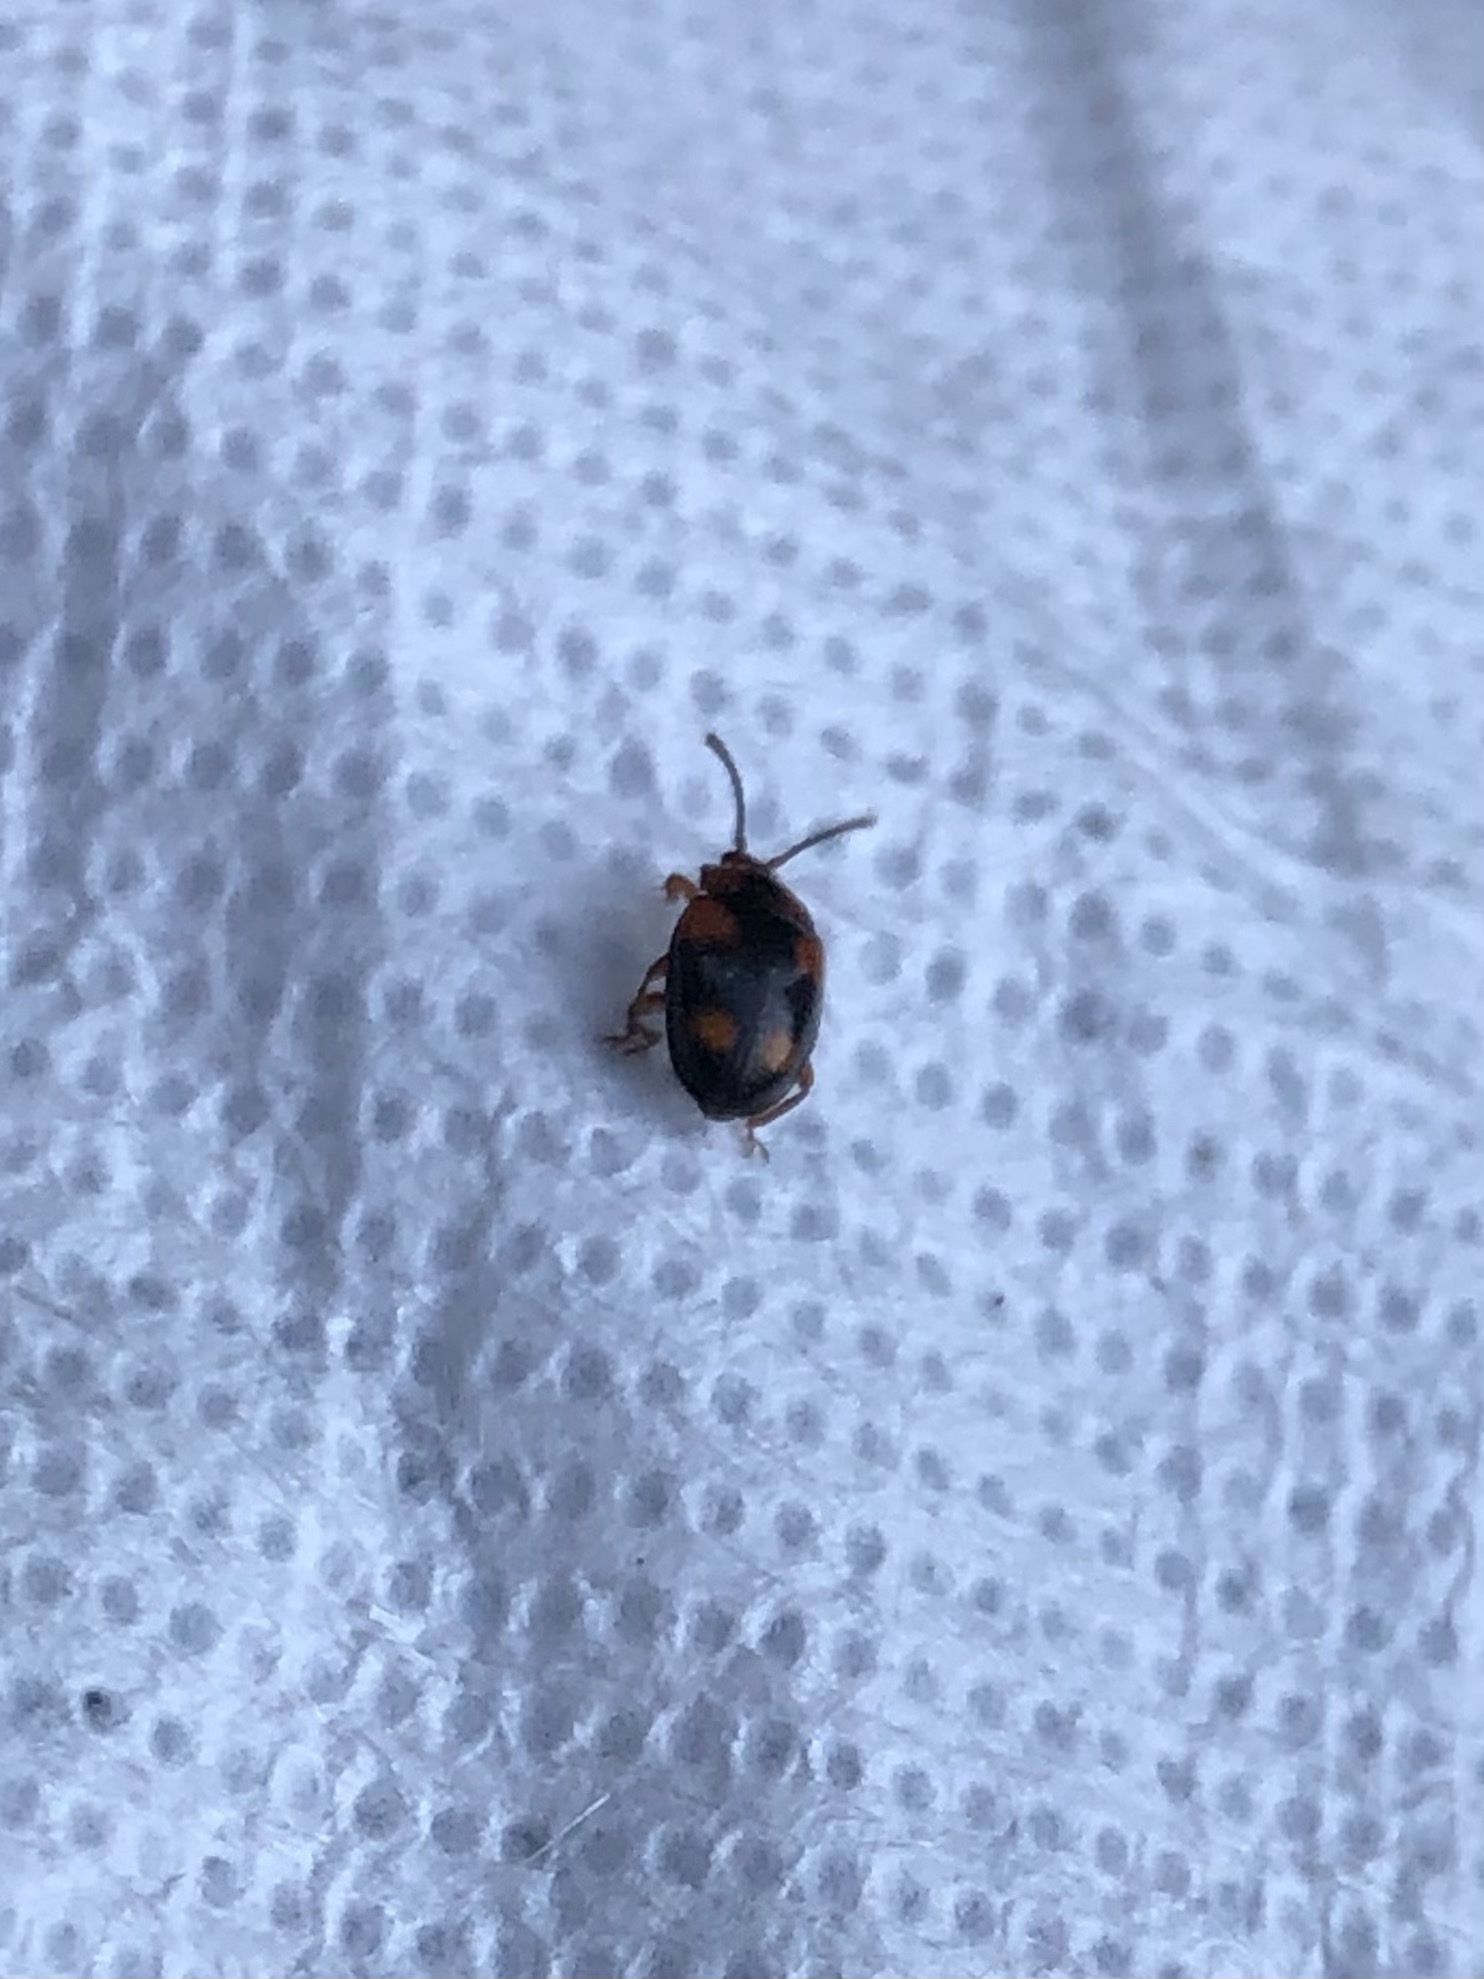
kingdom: Animalia
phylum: Arthropoda
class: Insecta
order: Coleoptera
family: Endomychidae
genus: Mycetina
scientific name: Mycetina hornii
